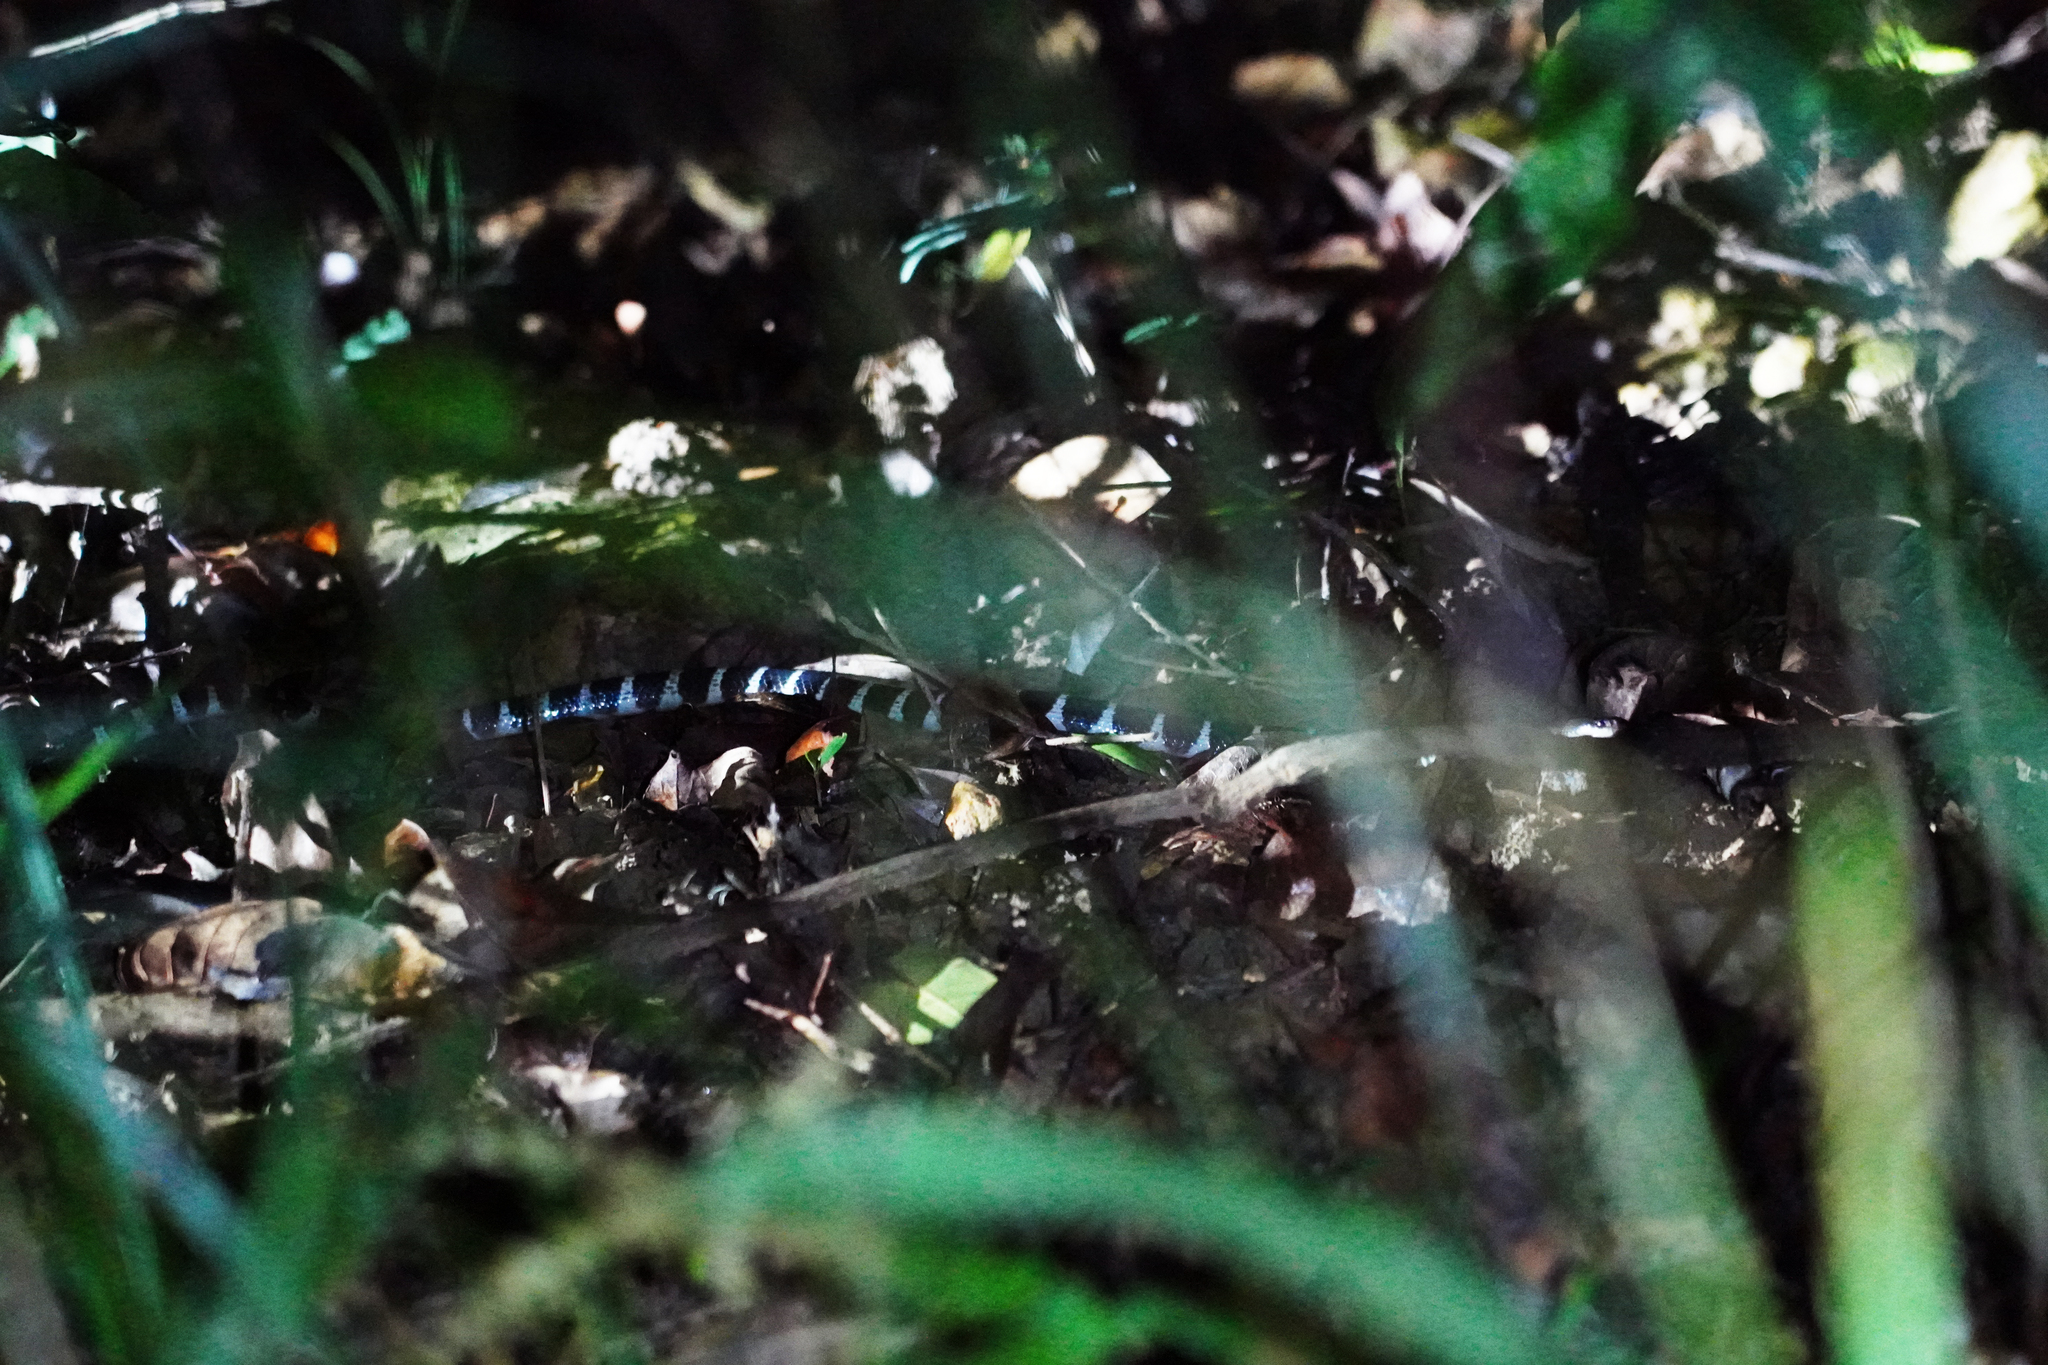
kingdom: Animalia
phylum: Chordata
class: Squamata
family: Elapidae
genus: Bungarus
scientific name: Bungarus multicinctus
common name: Many-banded krait
